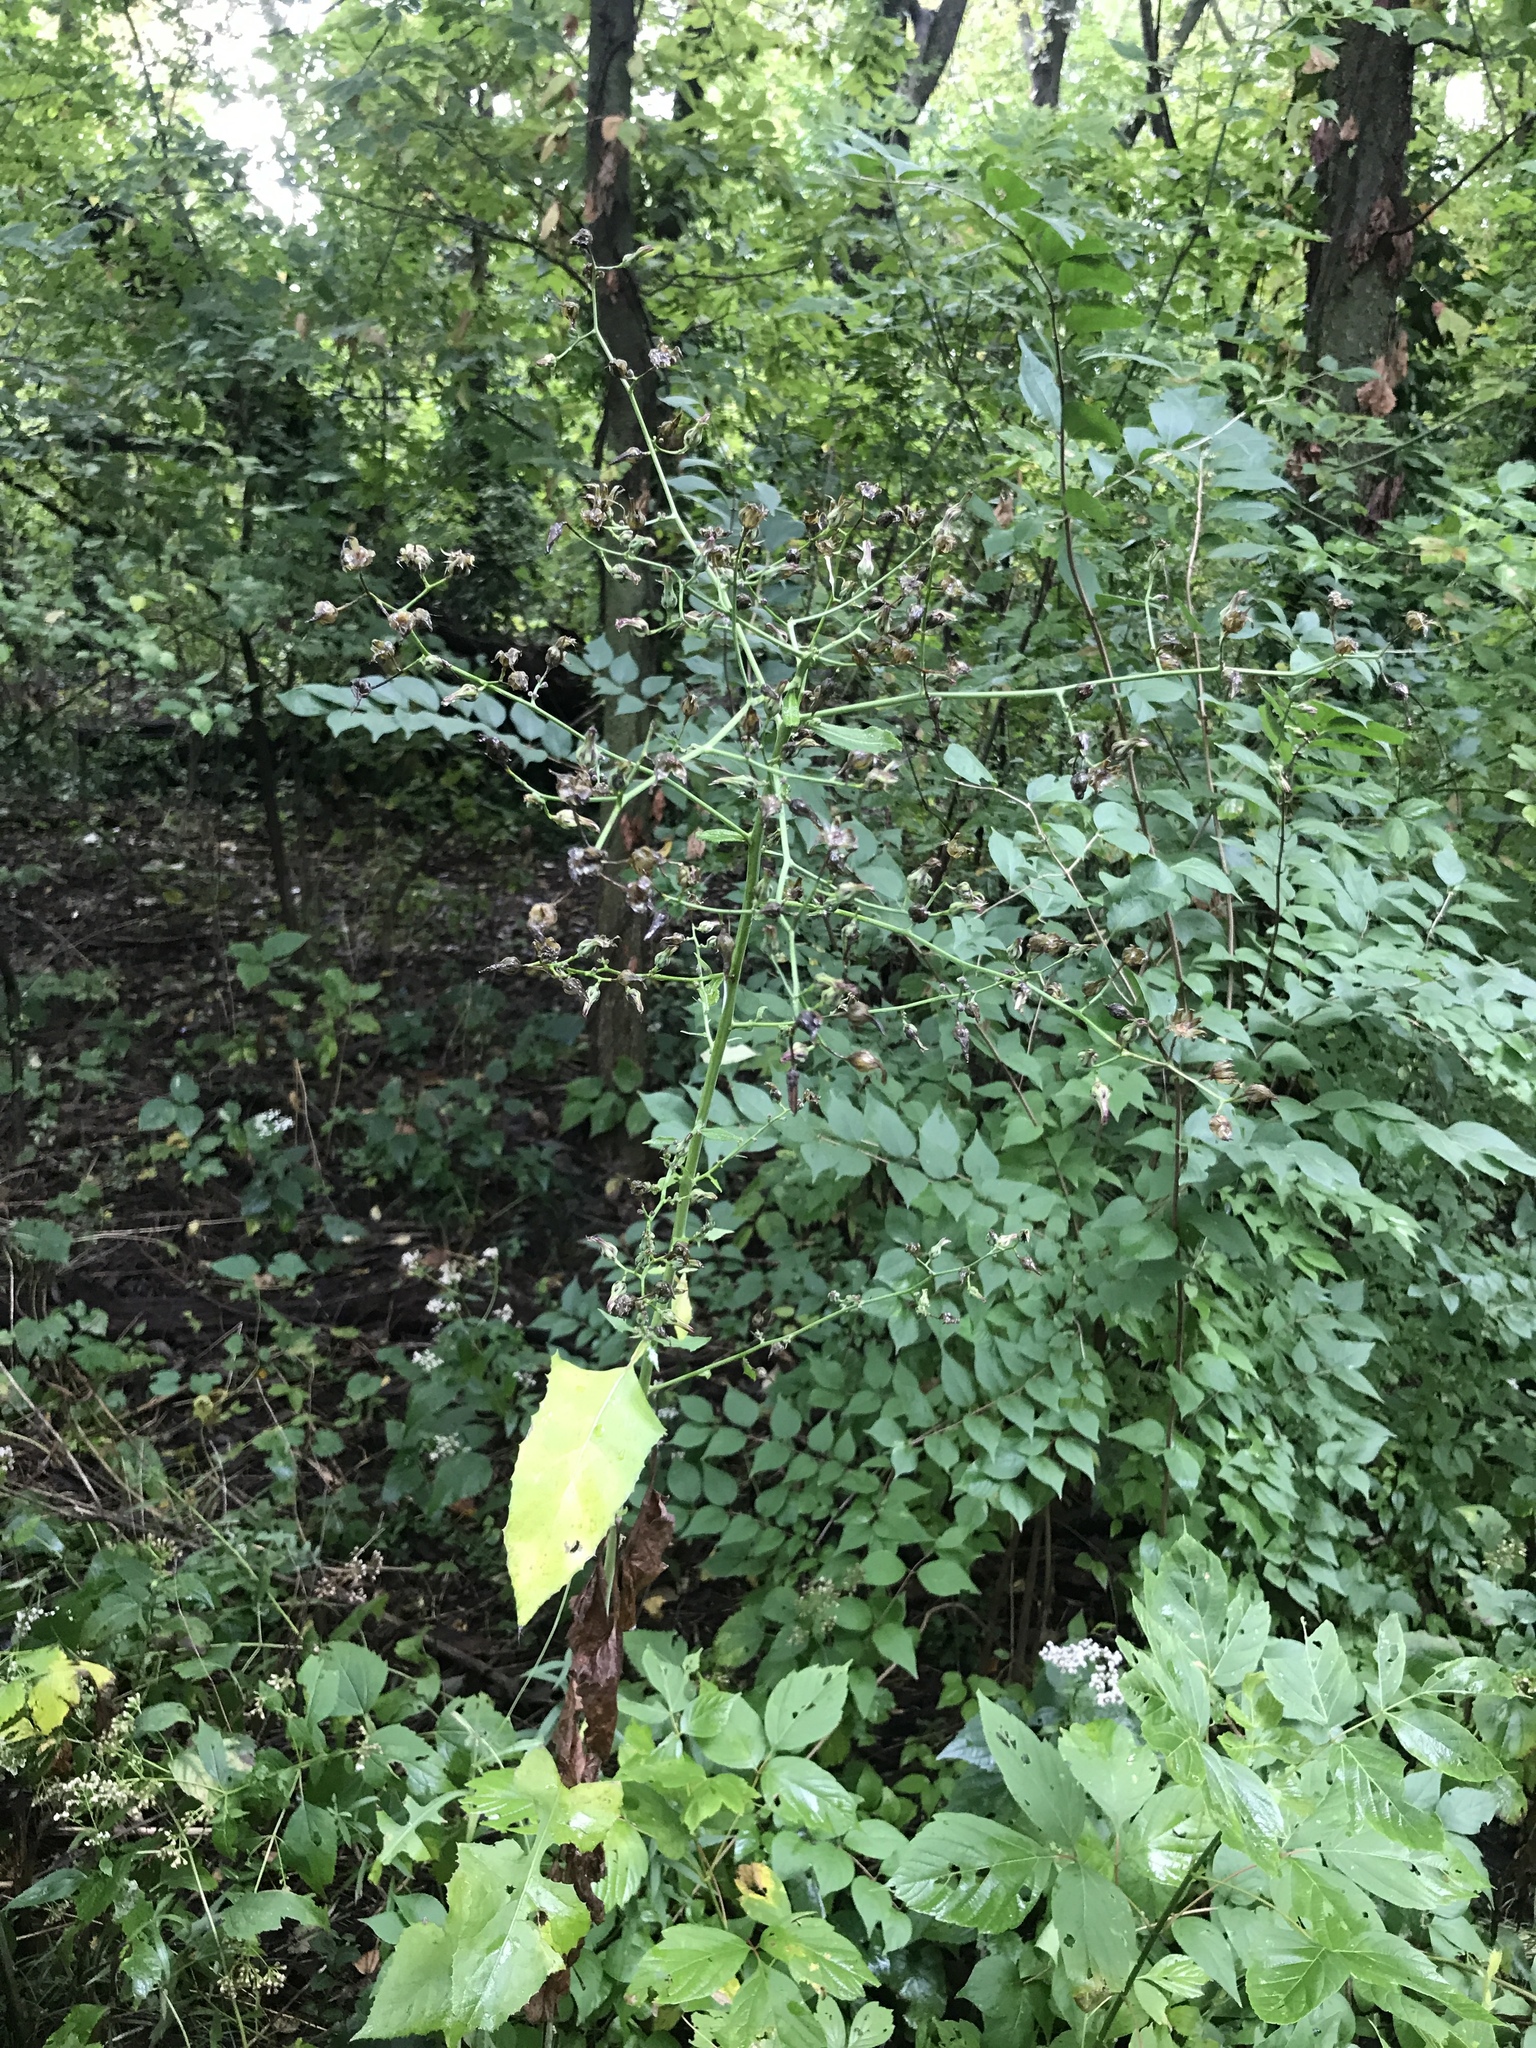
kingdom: Plantae
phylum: Tracheophyta
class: Magnoliopsida
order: Asterales
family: Asteraceae
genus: Lactuca
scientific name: Lactuca floridana
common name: Woodland lettuce
